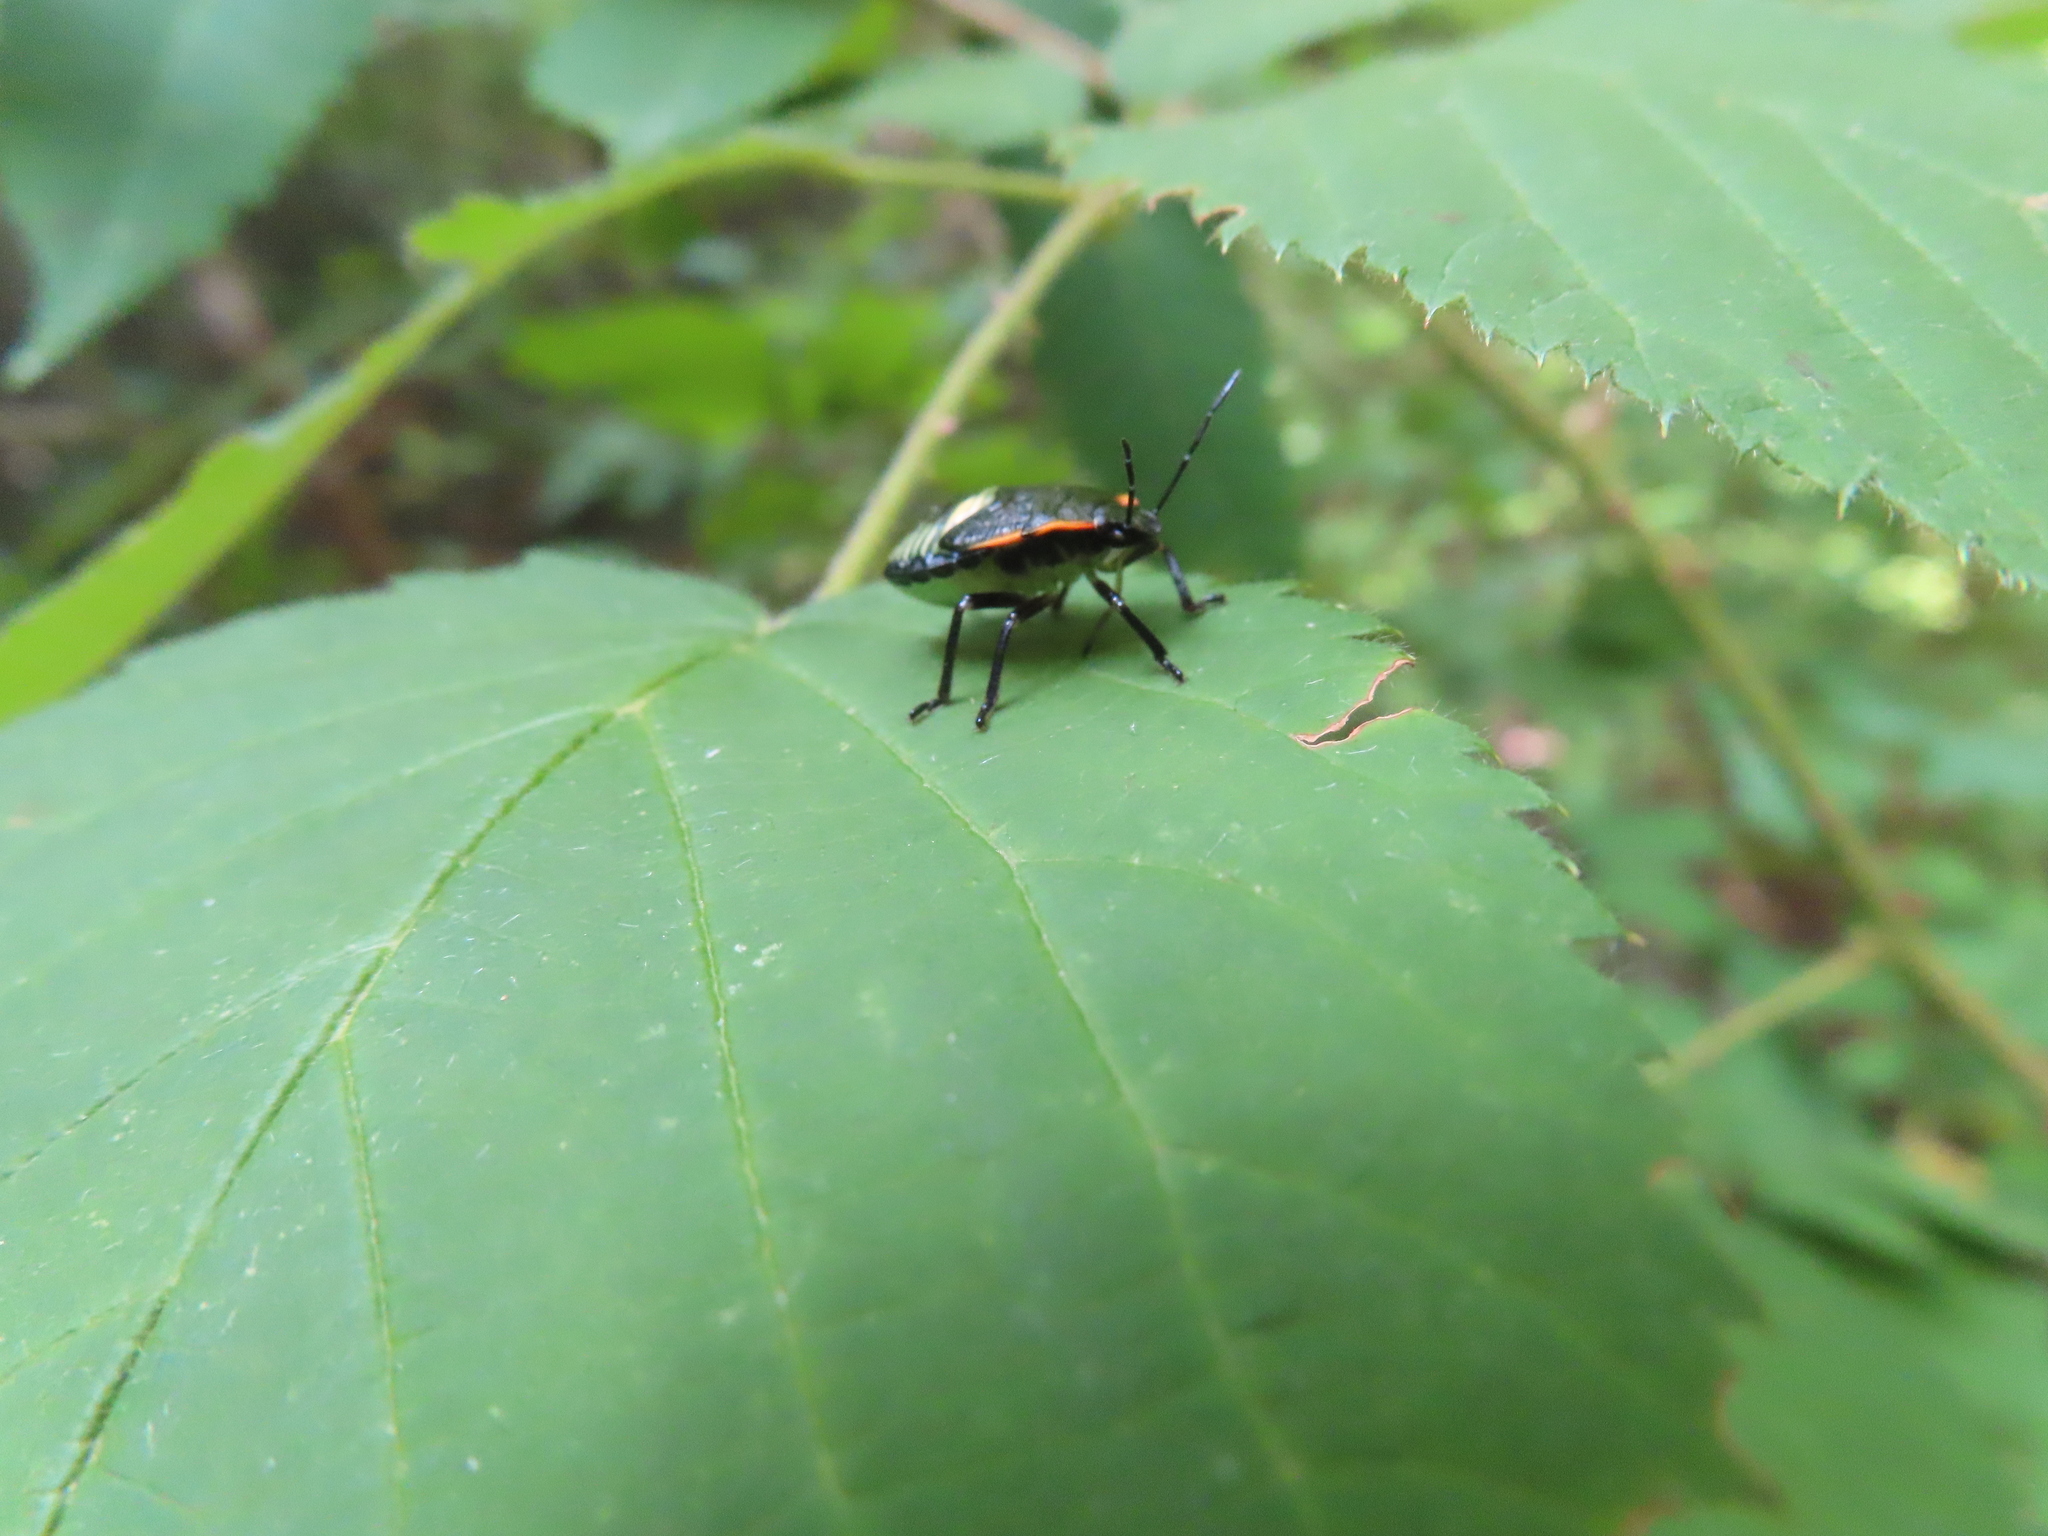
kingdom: Animalia
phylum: Arthropoda
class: Insecta
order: Hemiptera
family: Pentatomidae
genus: Chinavia
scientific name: Chinavia hilaris
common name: Green stink bug
